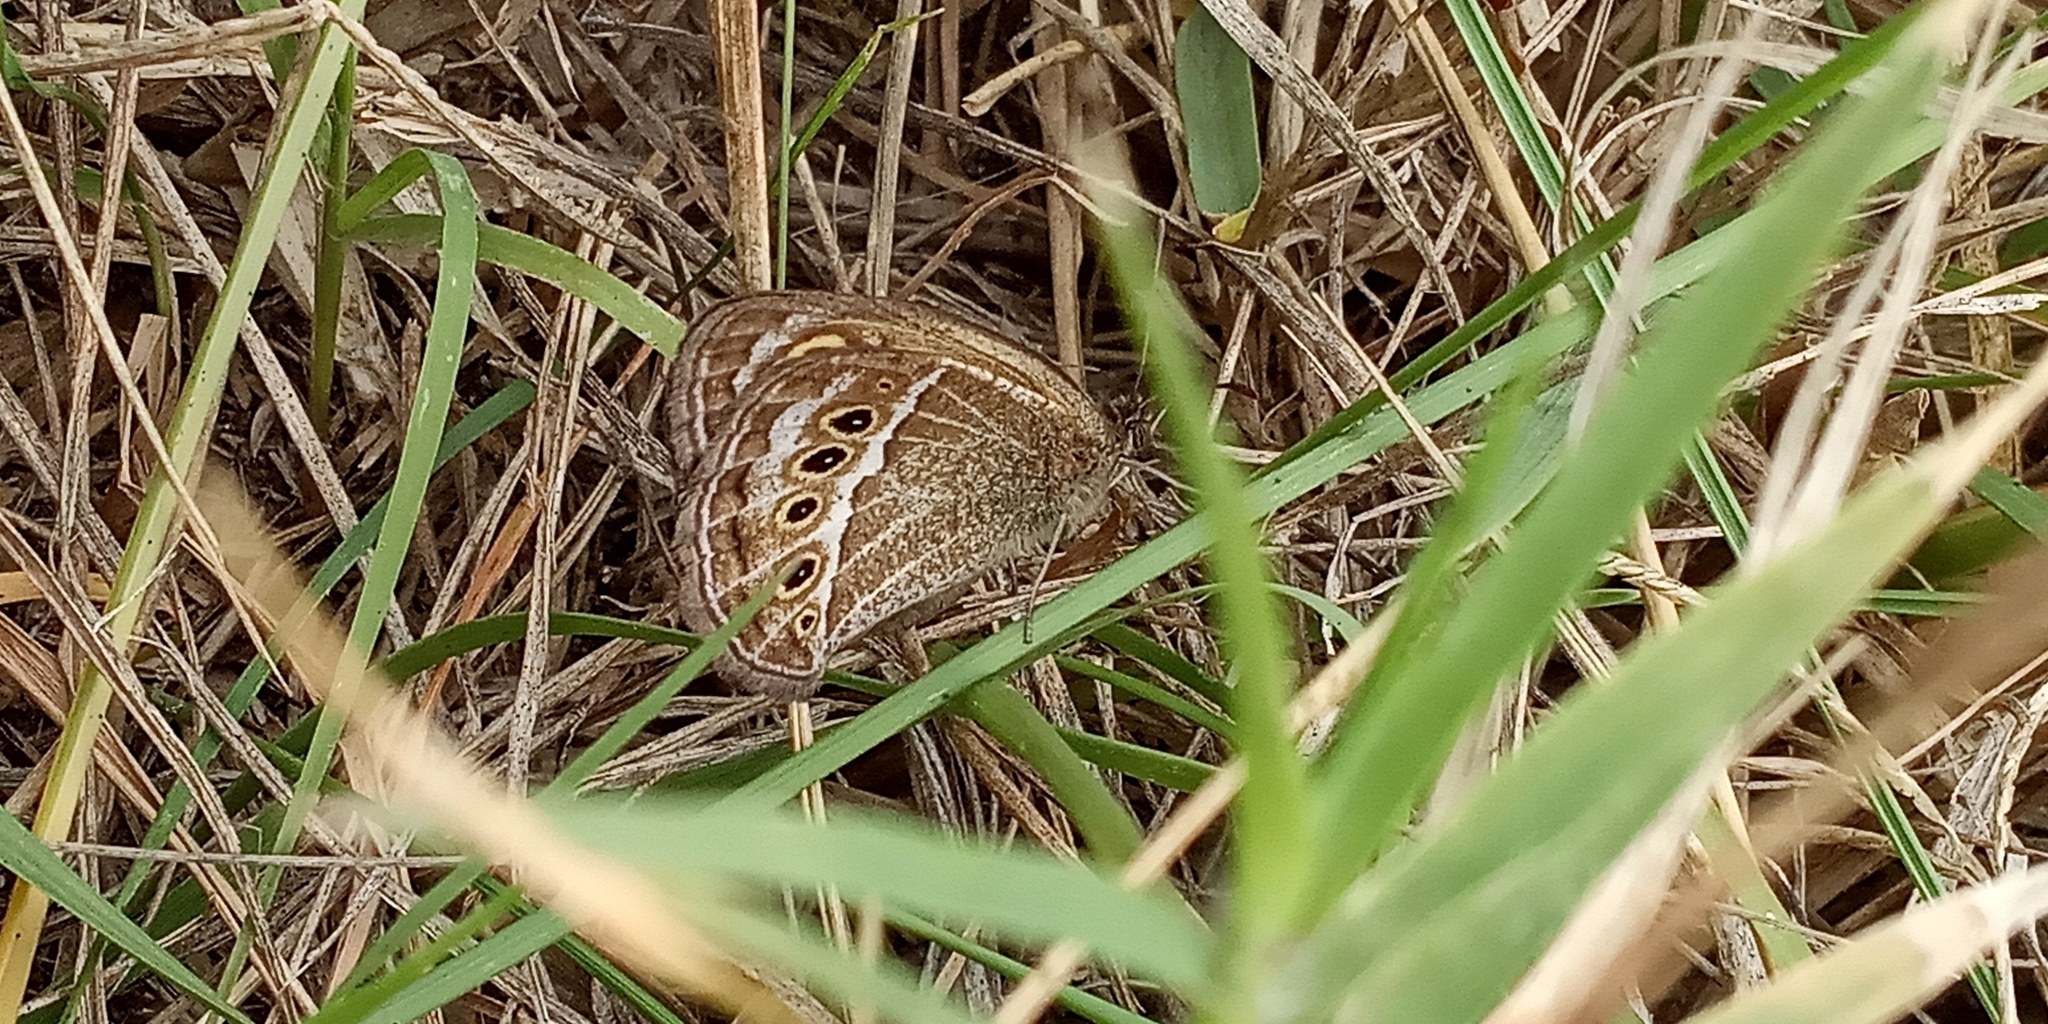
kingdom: Animalia
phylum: Arthropoda
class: Insecta
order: Lepidoptera
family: Nymphalidae
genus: Pampasatyrus
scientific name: Pampasatyrus gyrtone
